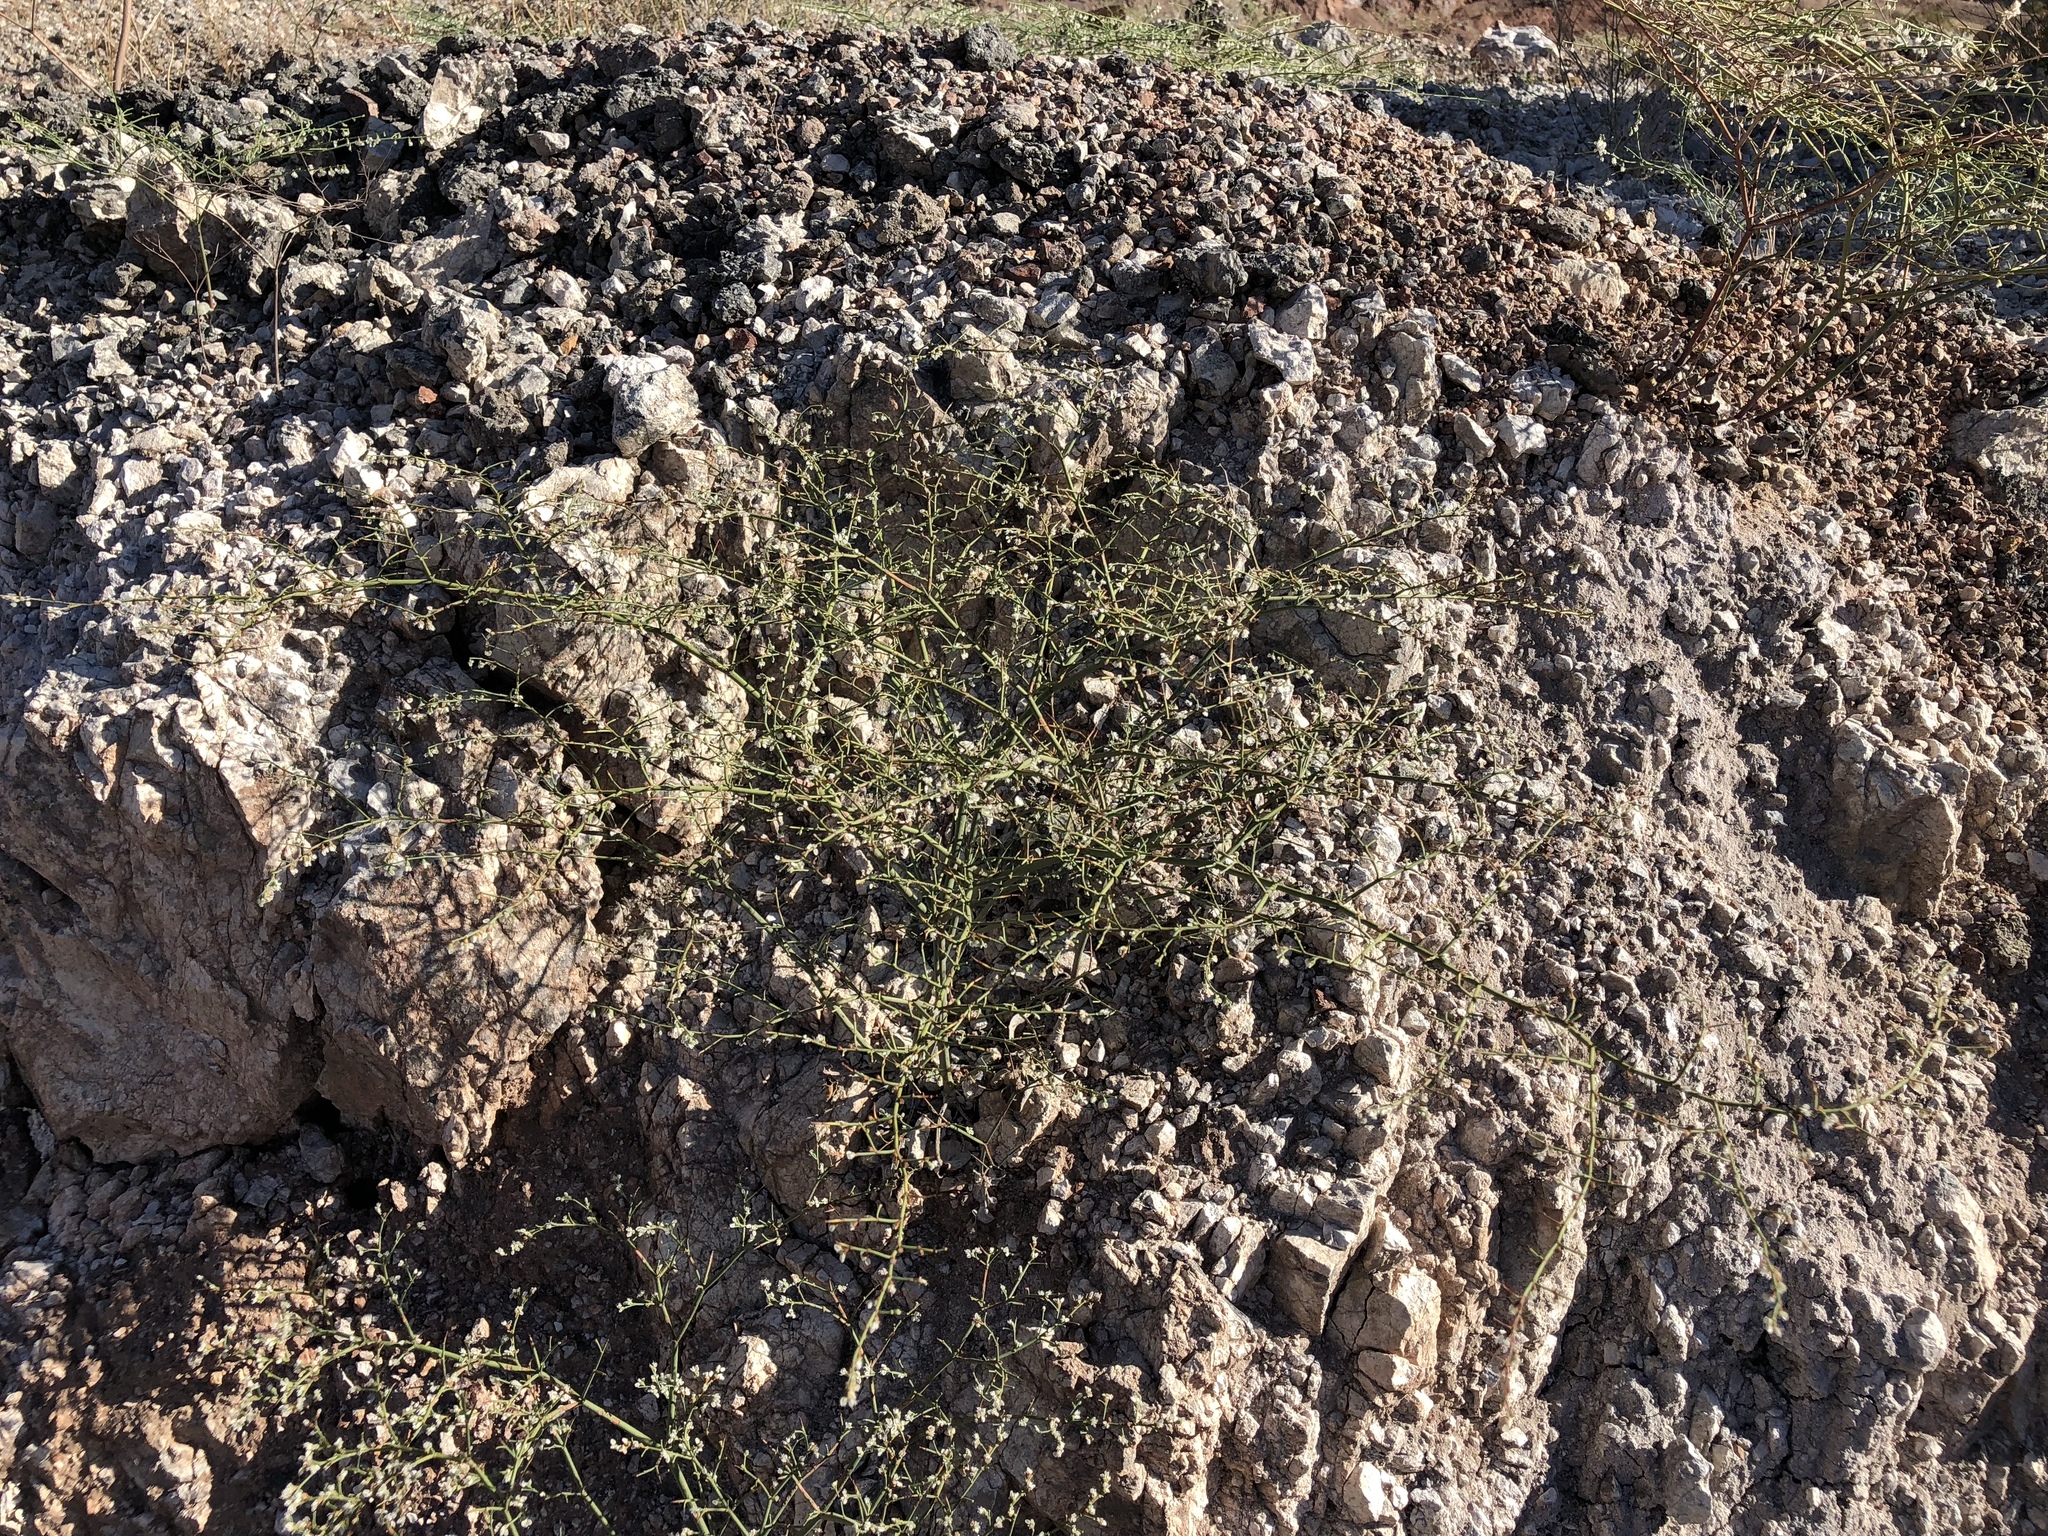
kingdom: Plantae
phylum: Tracheophyta
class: Magnoliopsida
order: Caryophyllales
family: Polygonaceae
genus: Eriogonum
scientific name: Eriogonum deflexum
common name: Skeleton-weed
